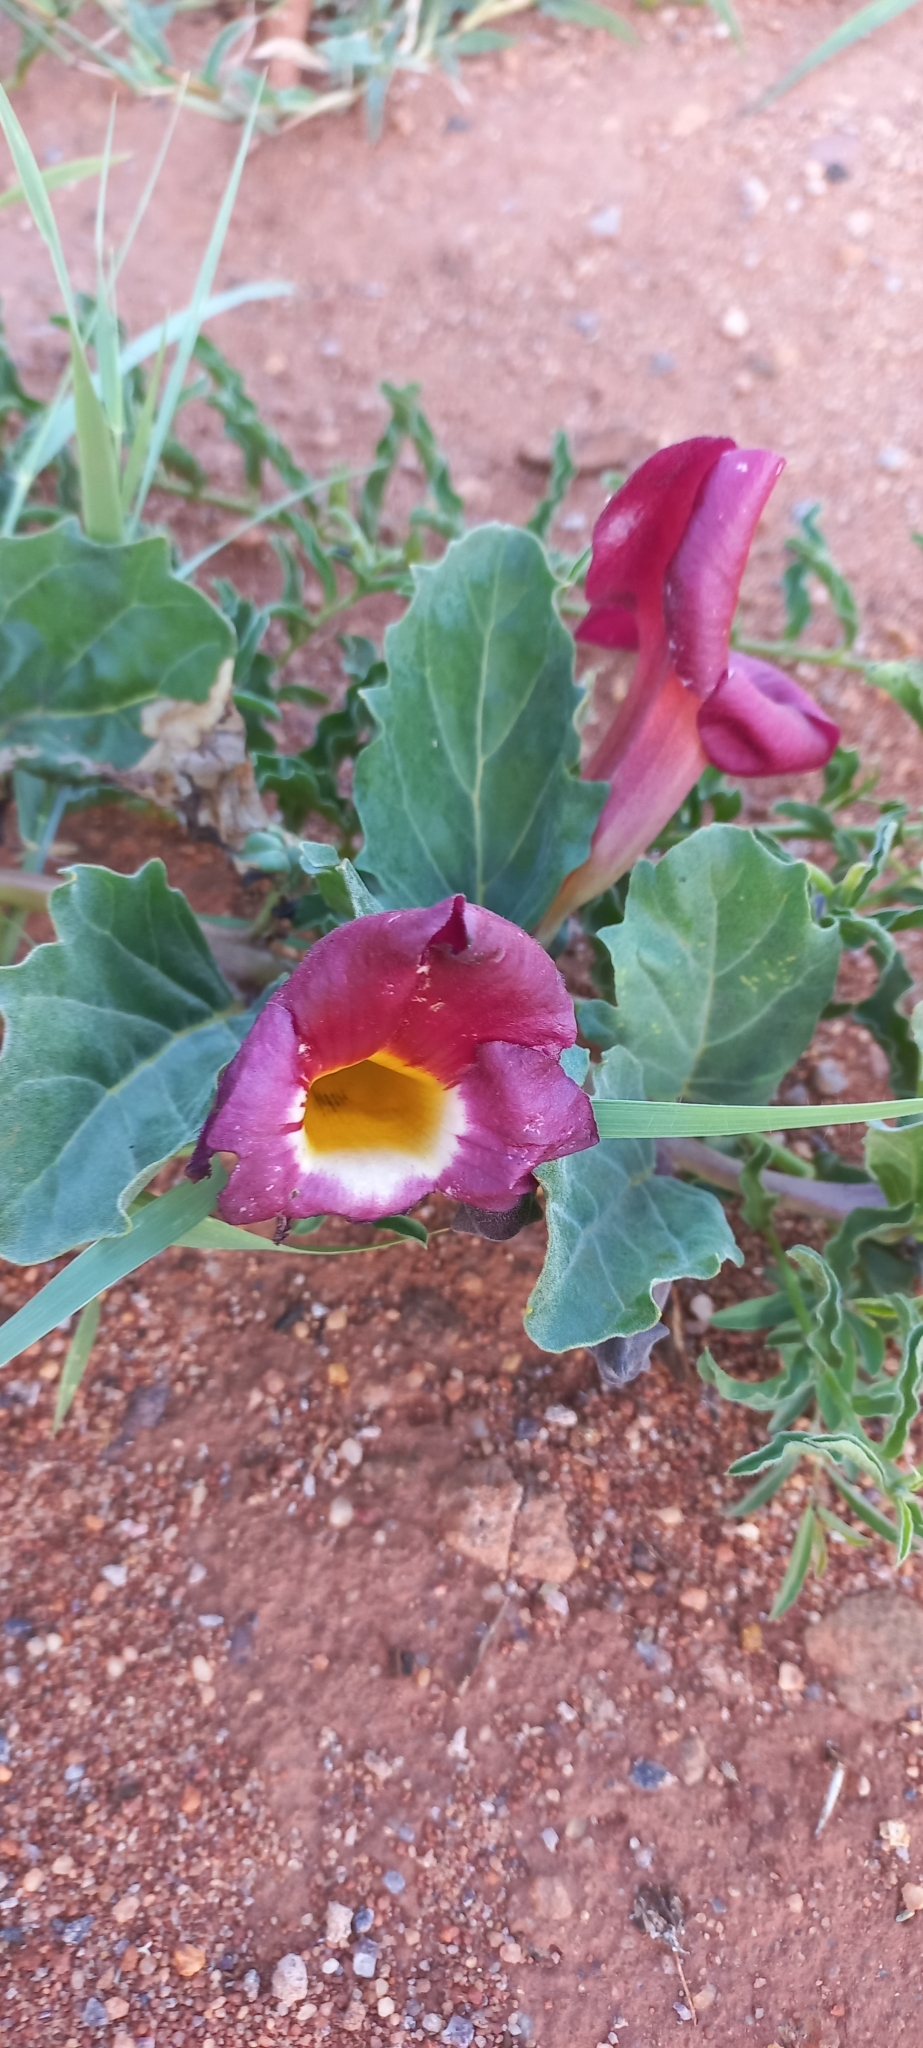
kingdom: Plantae
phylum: Tracheophyta
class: Magnoliopsida
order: Lamiales
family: Pedaliaceae
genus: Harpagophytum
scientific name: Harpagophytum zeyheri
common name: Grappleplant
